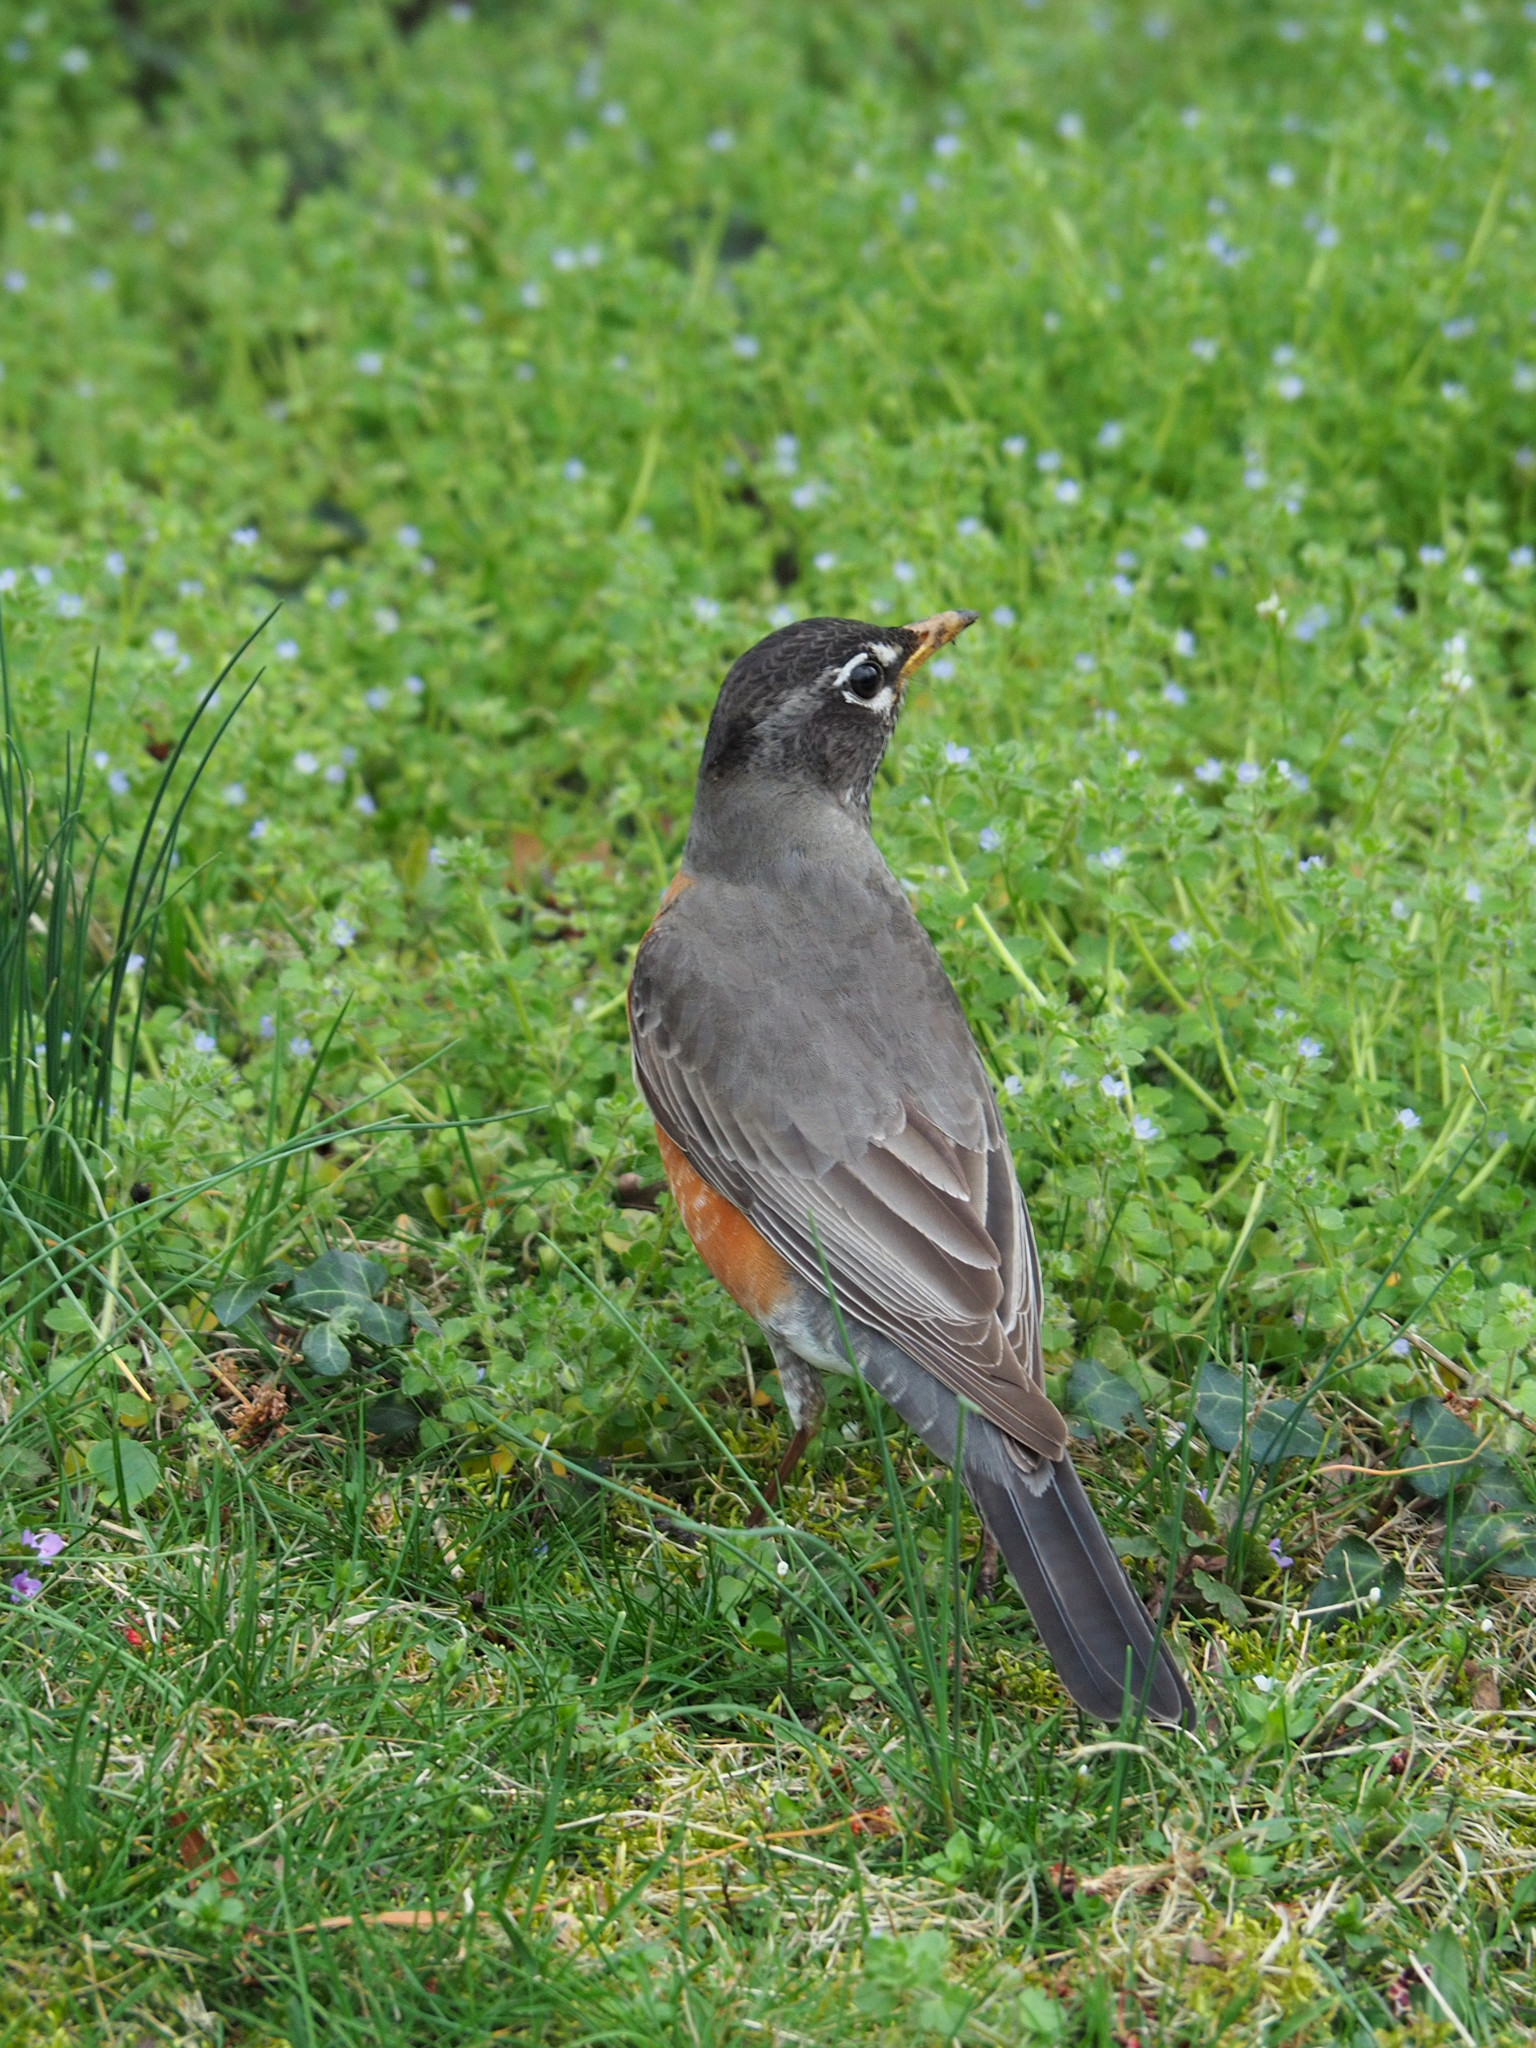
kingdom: Animalia
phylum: Chordata
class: Aves
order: Passeriformes
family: Turdidae
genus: Turdus
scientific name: Turdus migratorius
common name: American robin
